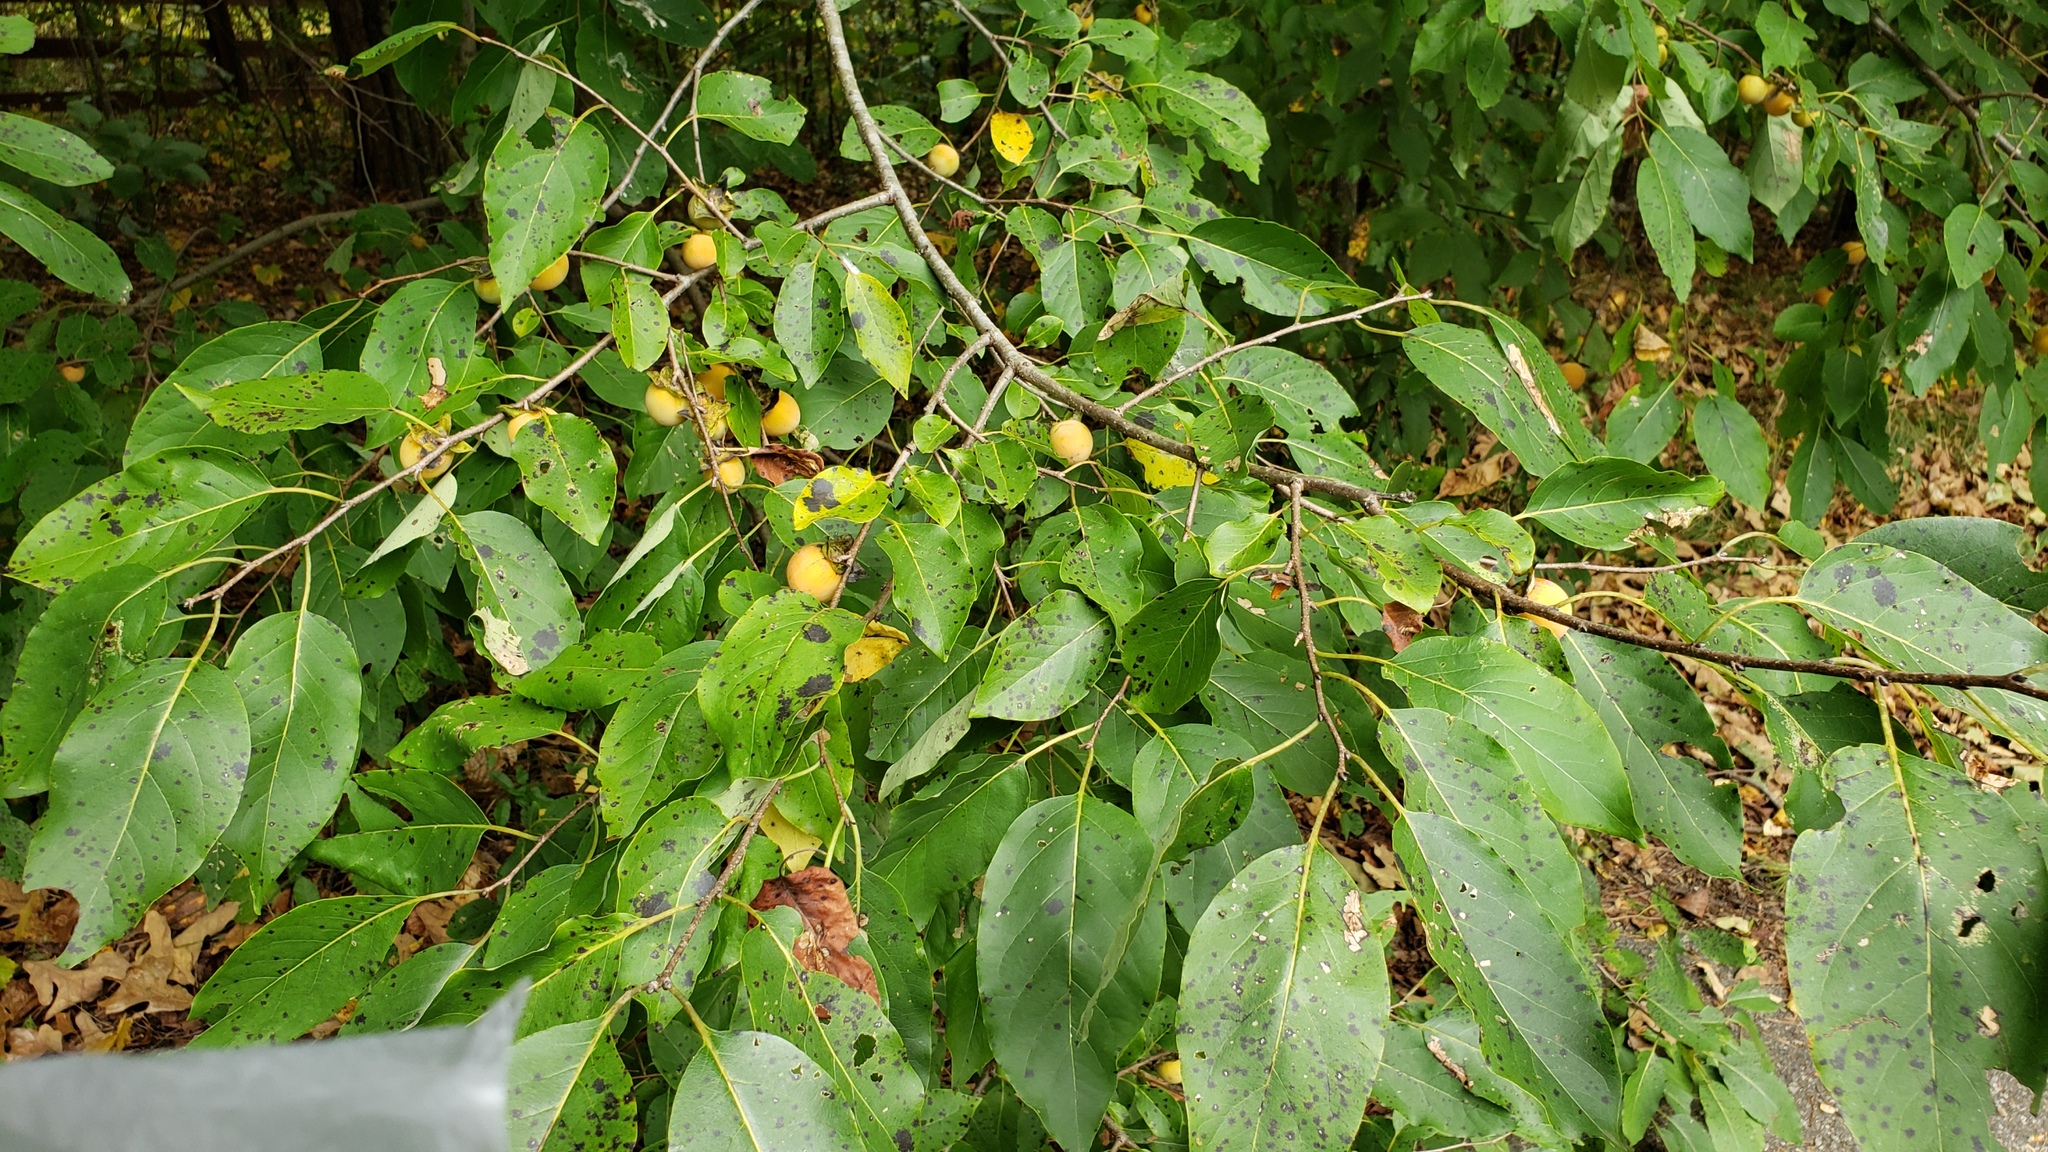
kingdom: Plantae
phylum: Tracheophyta
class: Magnoliopsida
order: Ericales
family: Ebenaceae
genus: Diospyros
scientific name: Diospyros virginiana
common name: Persimmon
